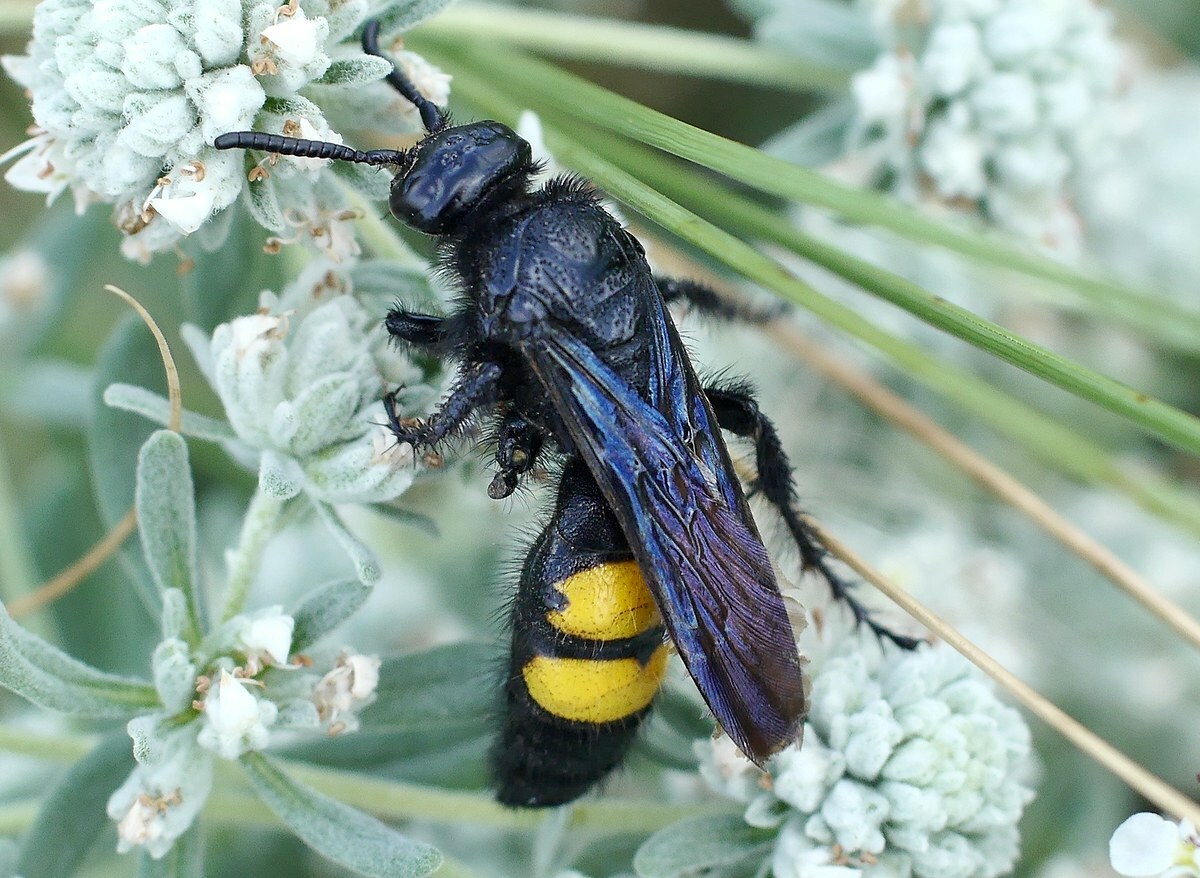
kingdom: Animalia
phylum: Arthropoda
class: Insecta
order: Hymenoptera
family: Scoliidae
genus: Scolia
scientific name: Scolia hirta
